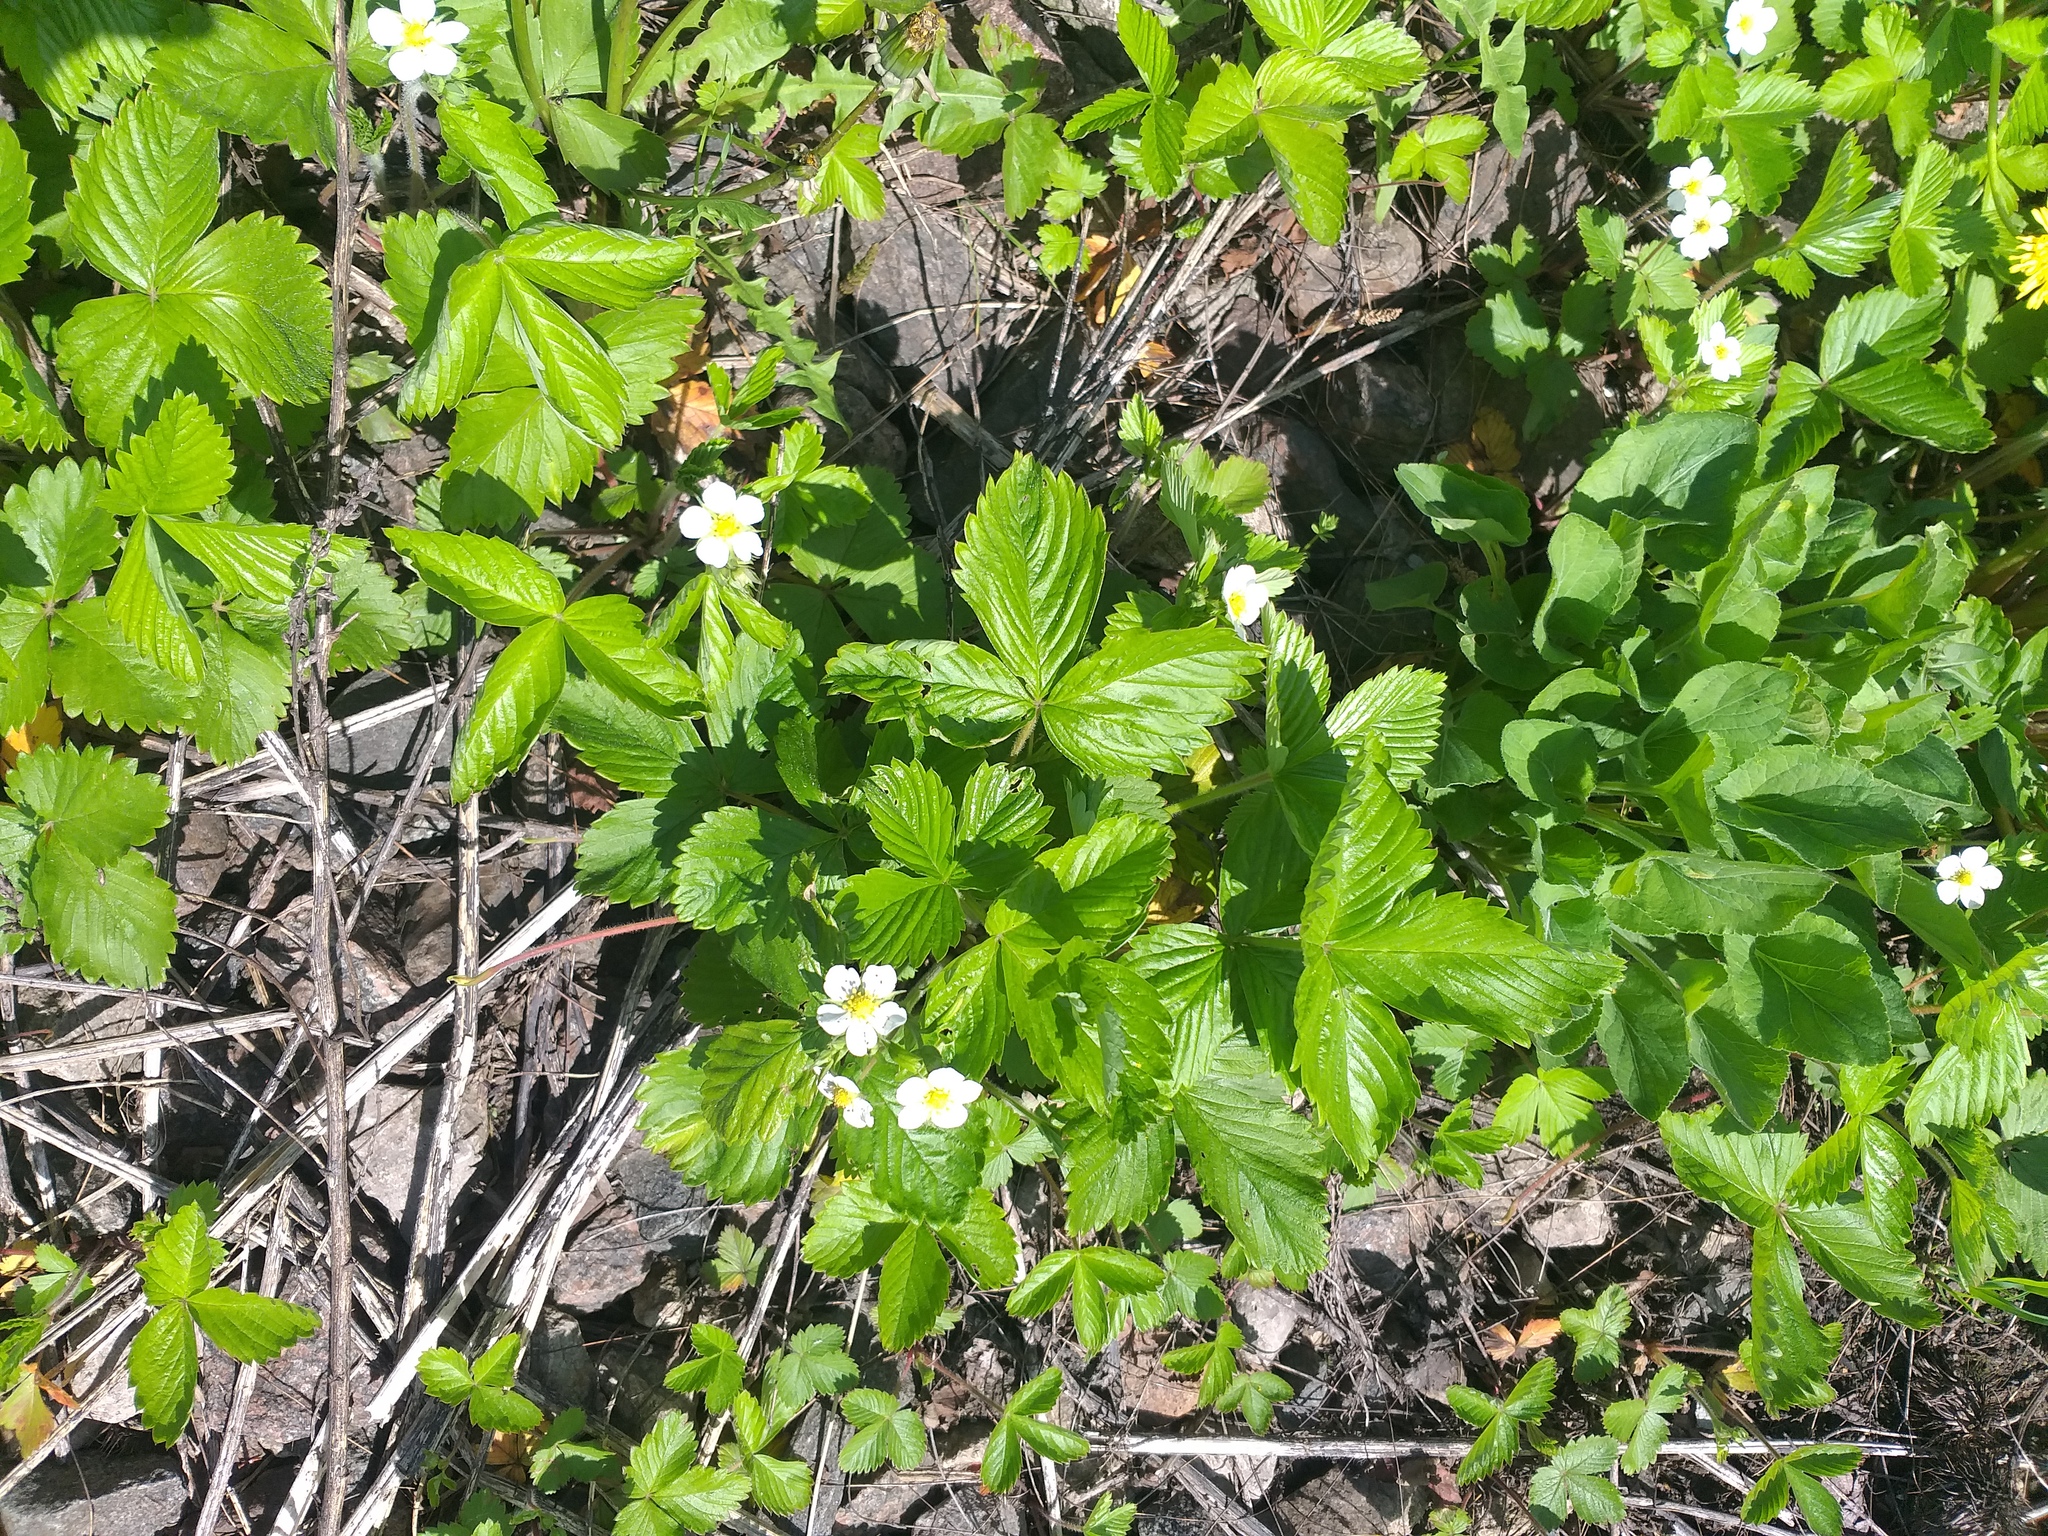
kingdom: Plantae
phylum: Tracheophyta
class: Magnoliopsida
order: Rosales
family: Rosaceae
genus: Fragaria
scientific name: Fragaria vesca
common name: Wild strawberry
